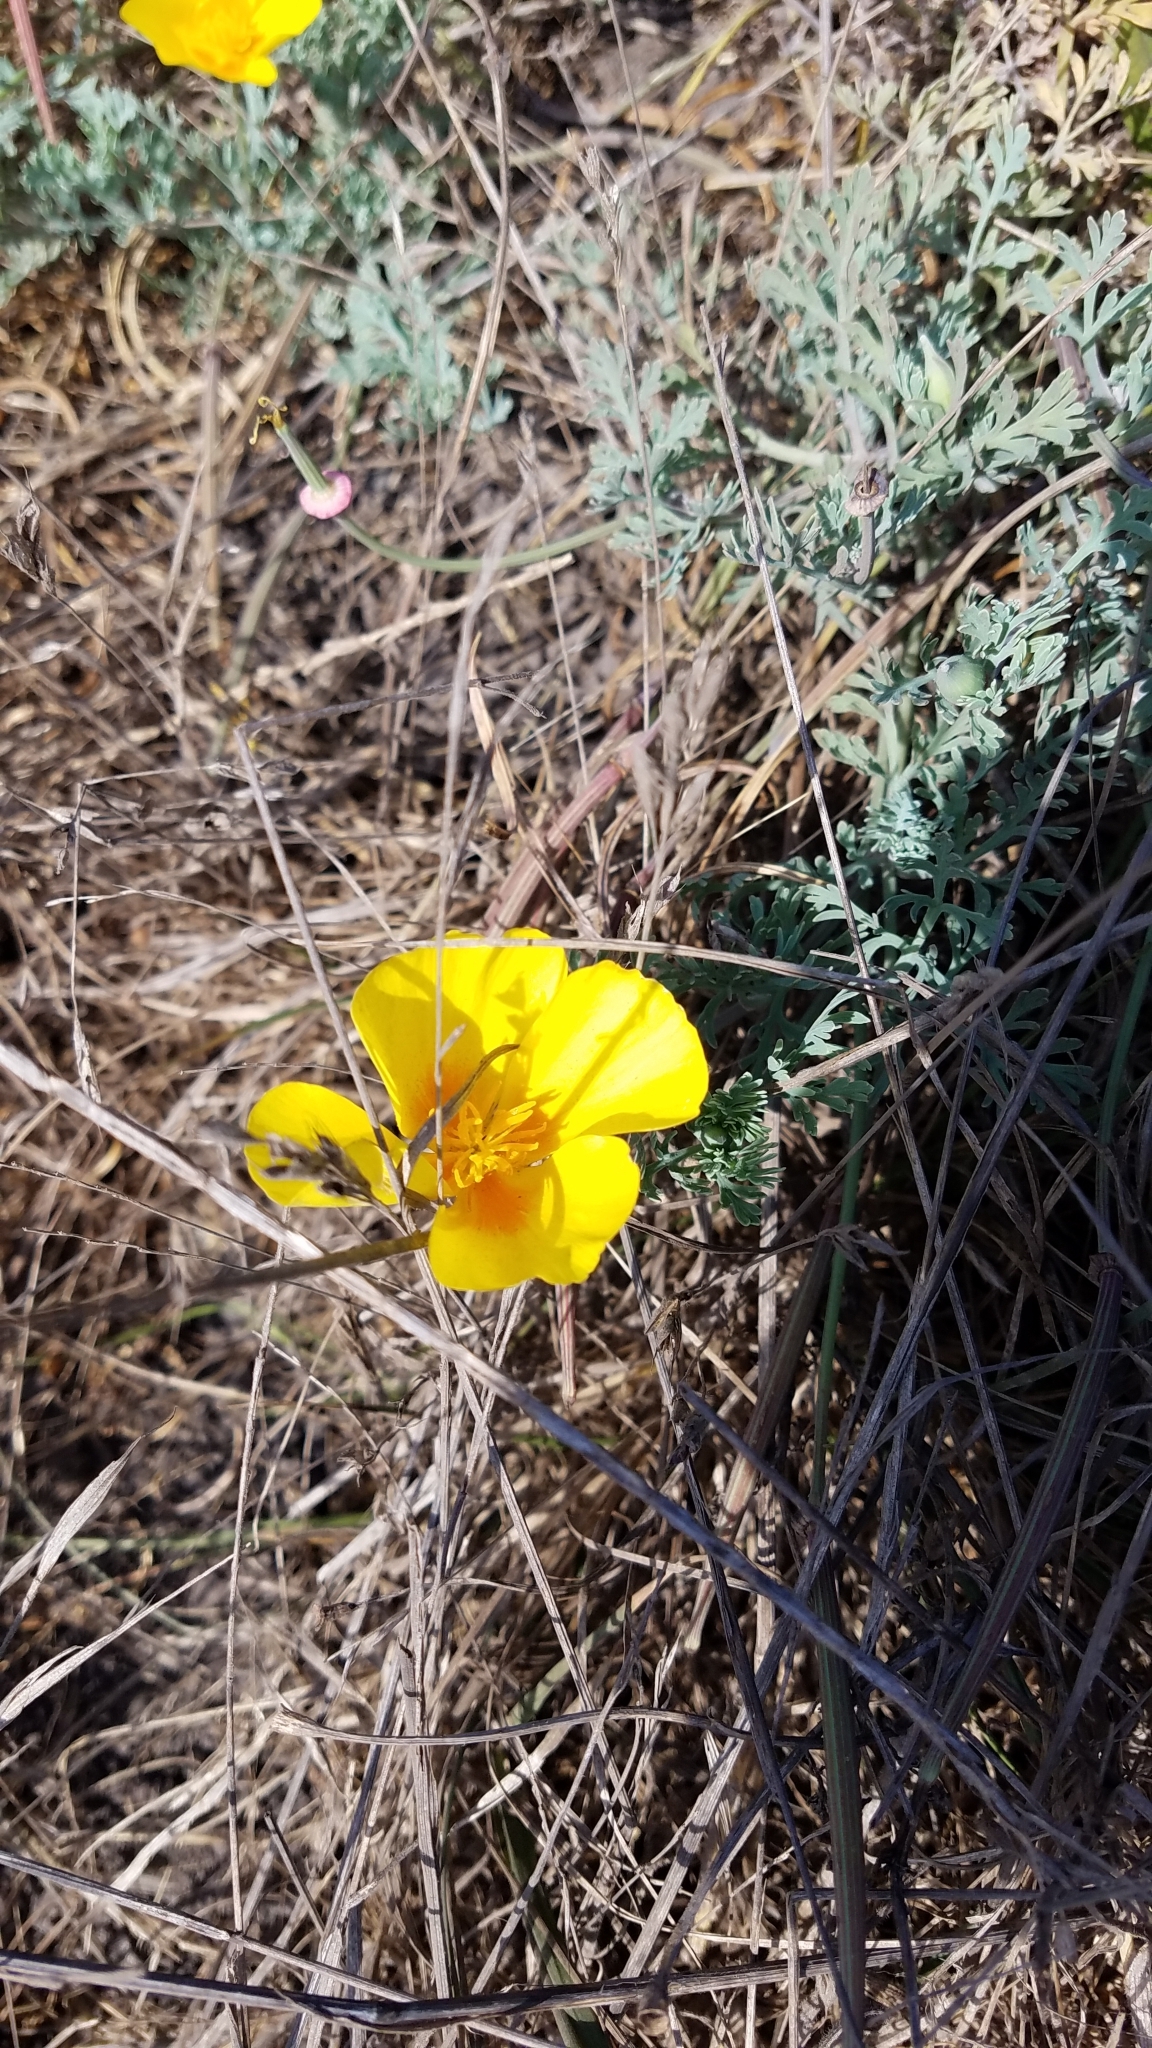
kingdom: Plantae
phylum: Tracheophyta
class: Magnoliopsida
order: Ranunculales
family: Papaveraceae
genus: Eschscholzia
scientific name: Eschscholzia californica
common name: California poppy
